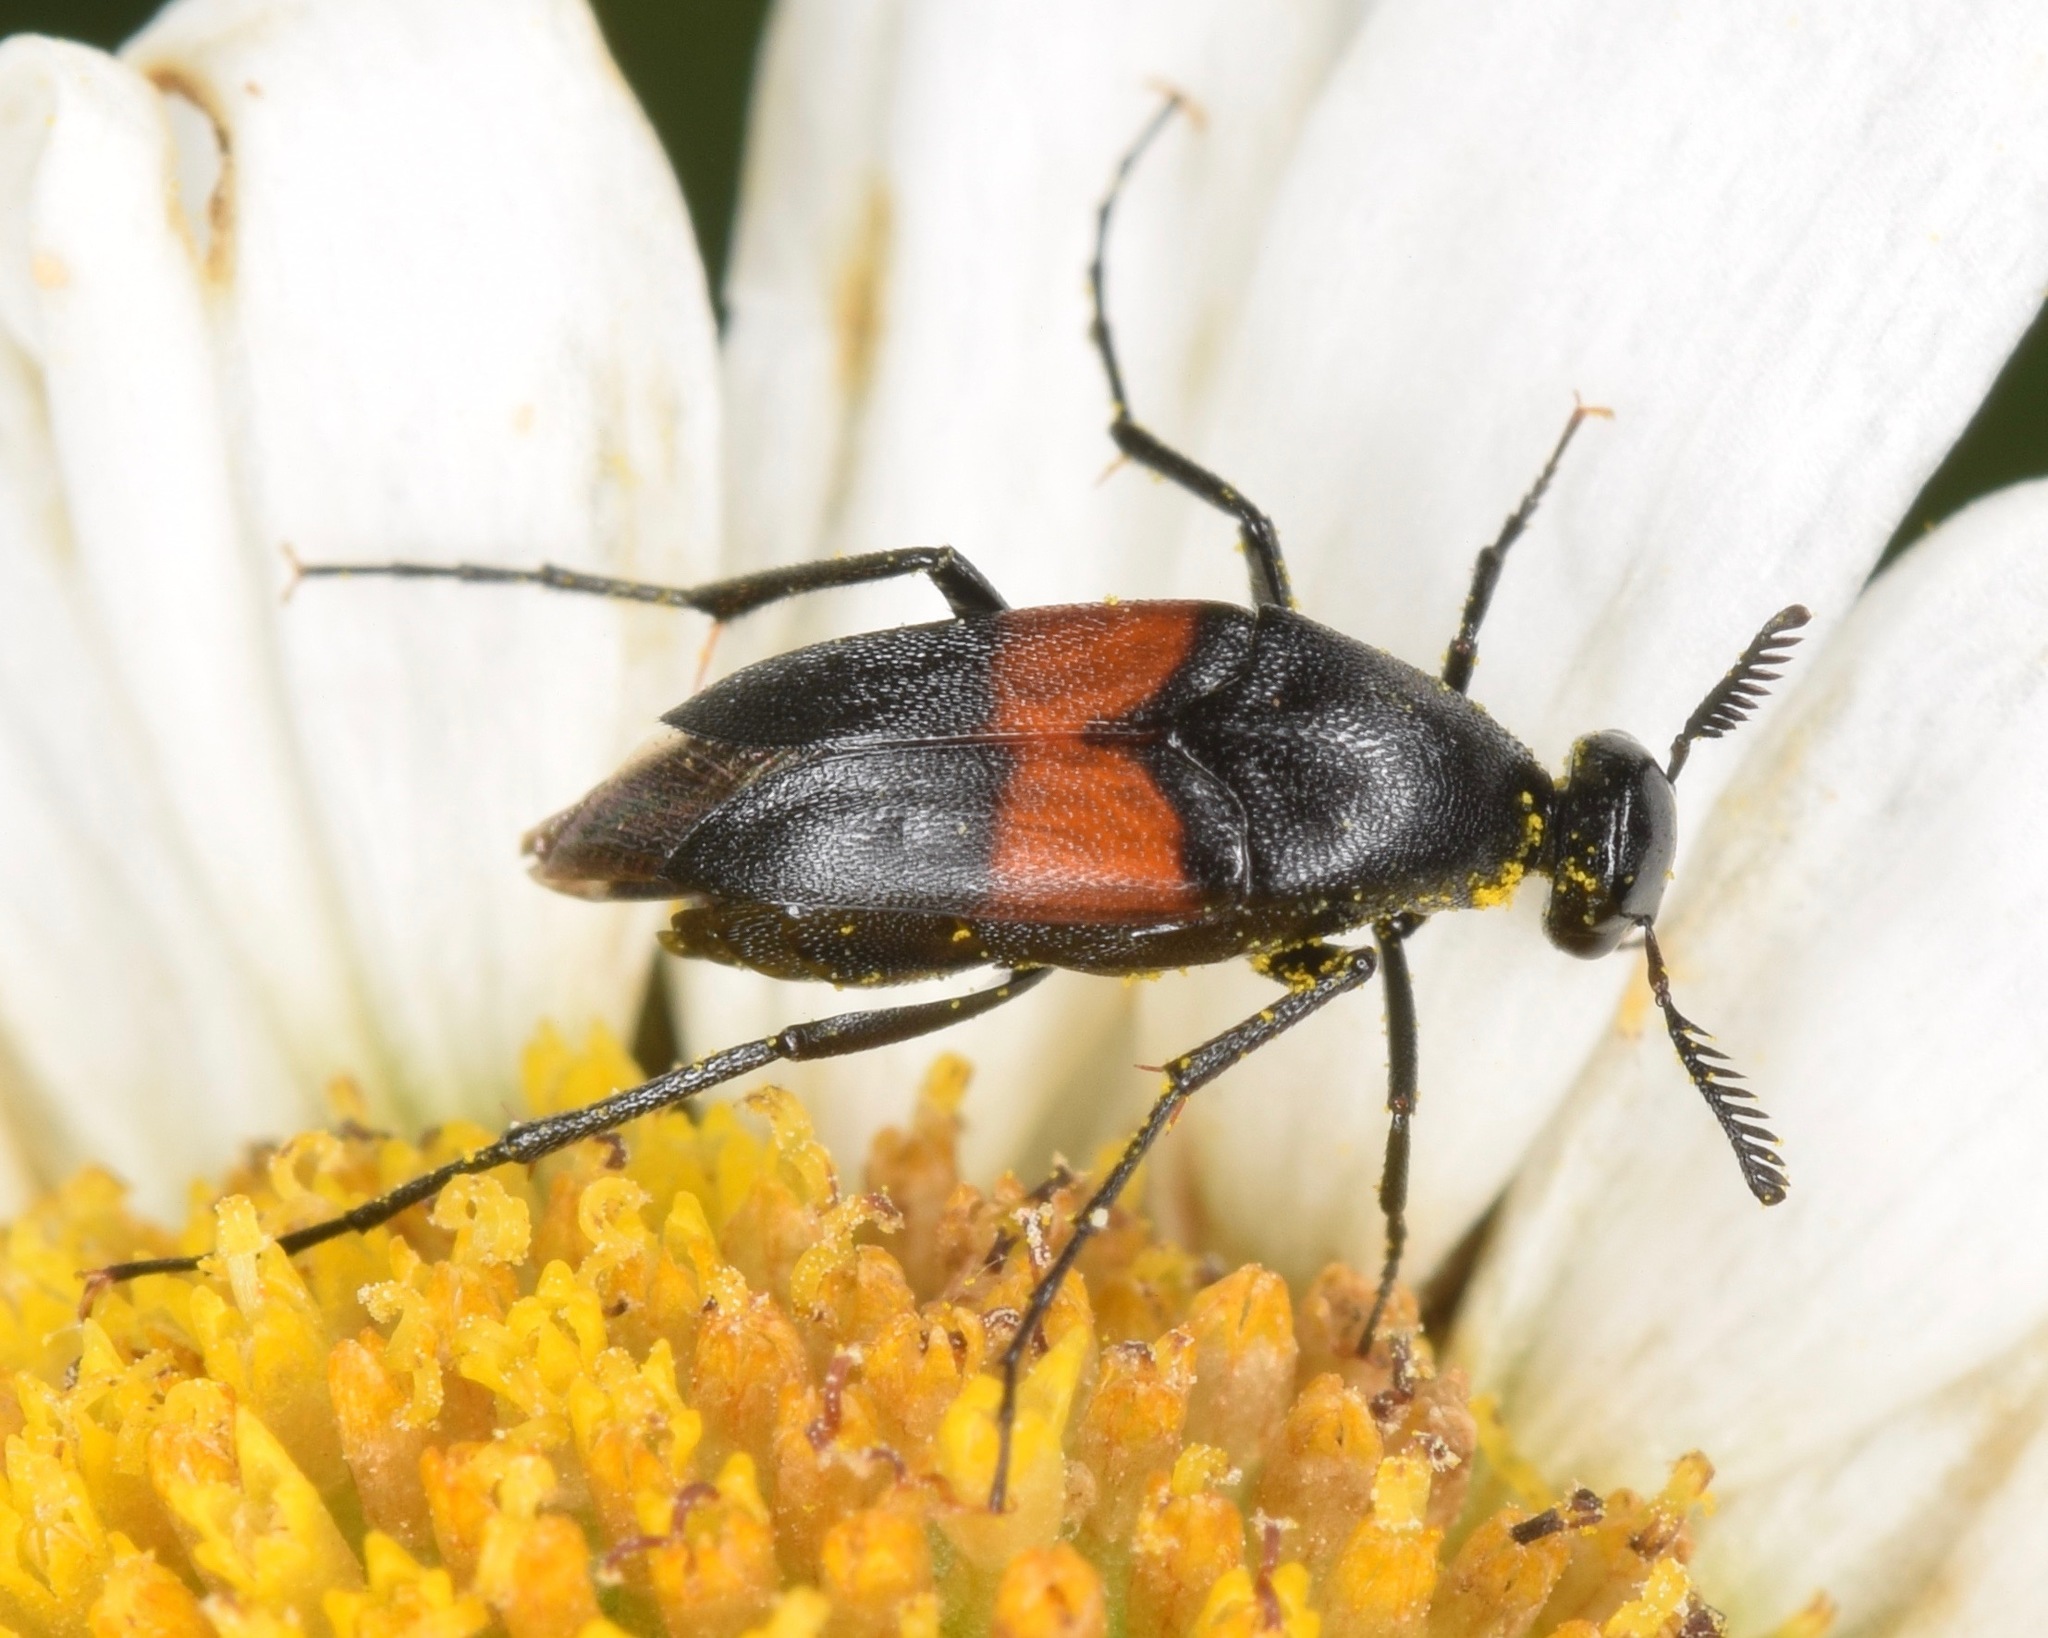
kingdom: Animalia
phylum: Arthropoda
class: Insecta
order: Coleoptera
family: Ripiphoridae
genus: Macrosiagon
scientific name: Macrosiagon cruentum
